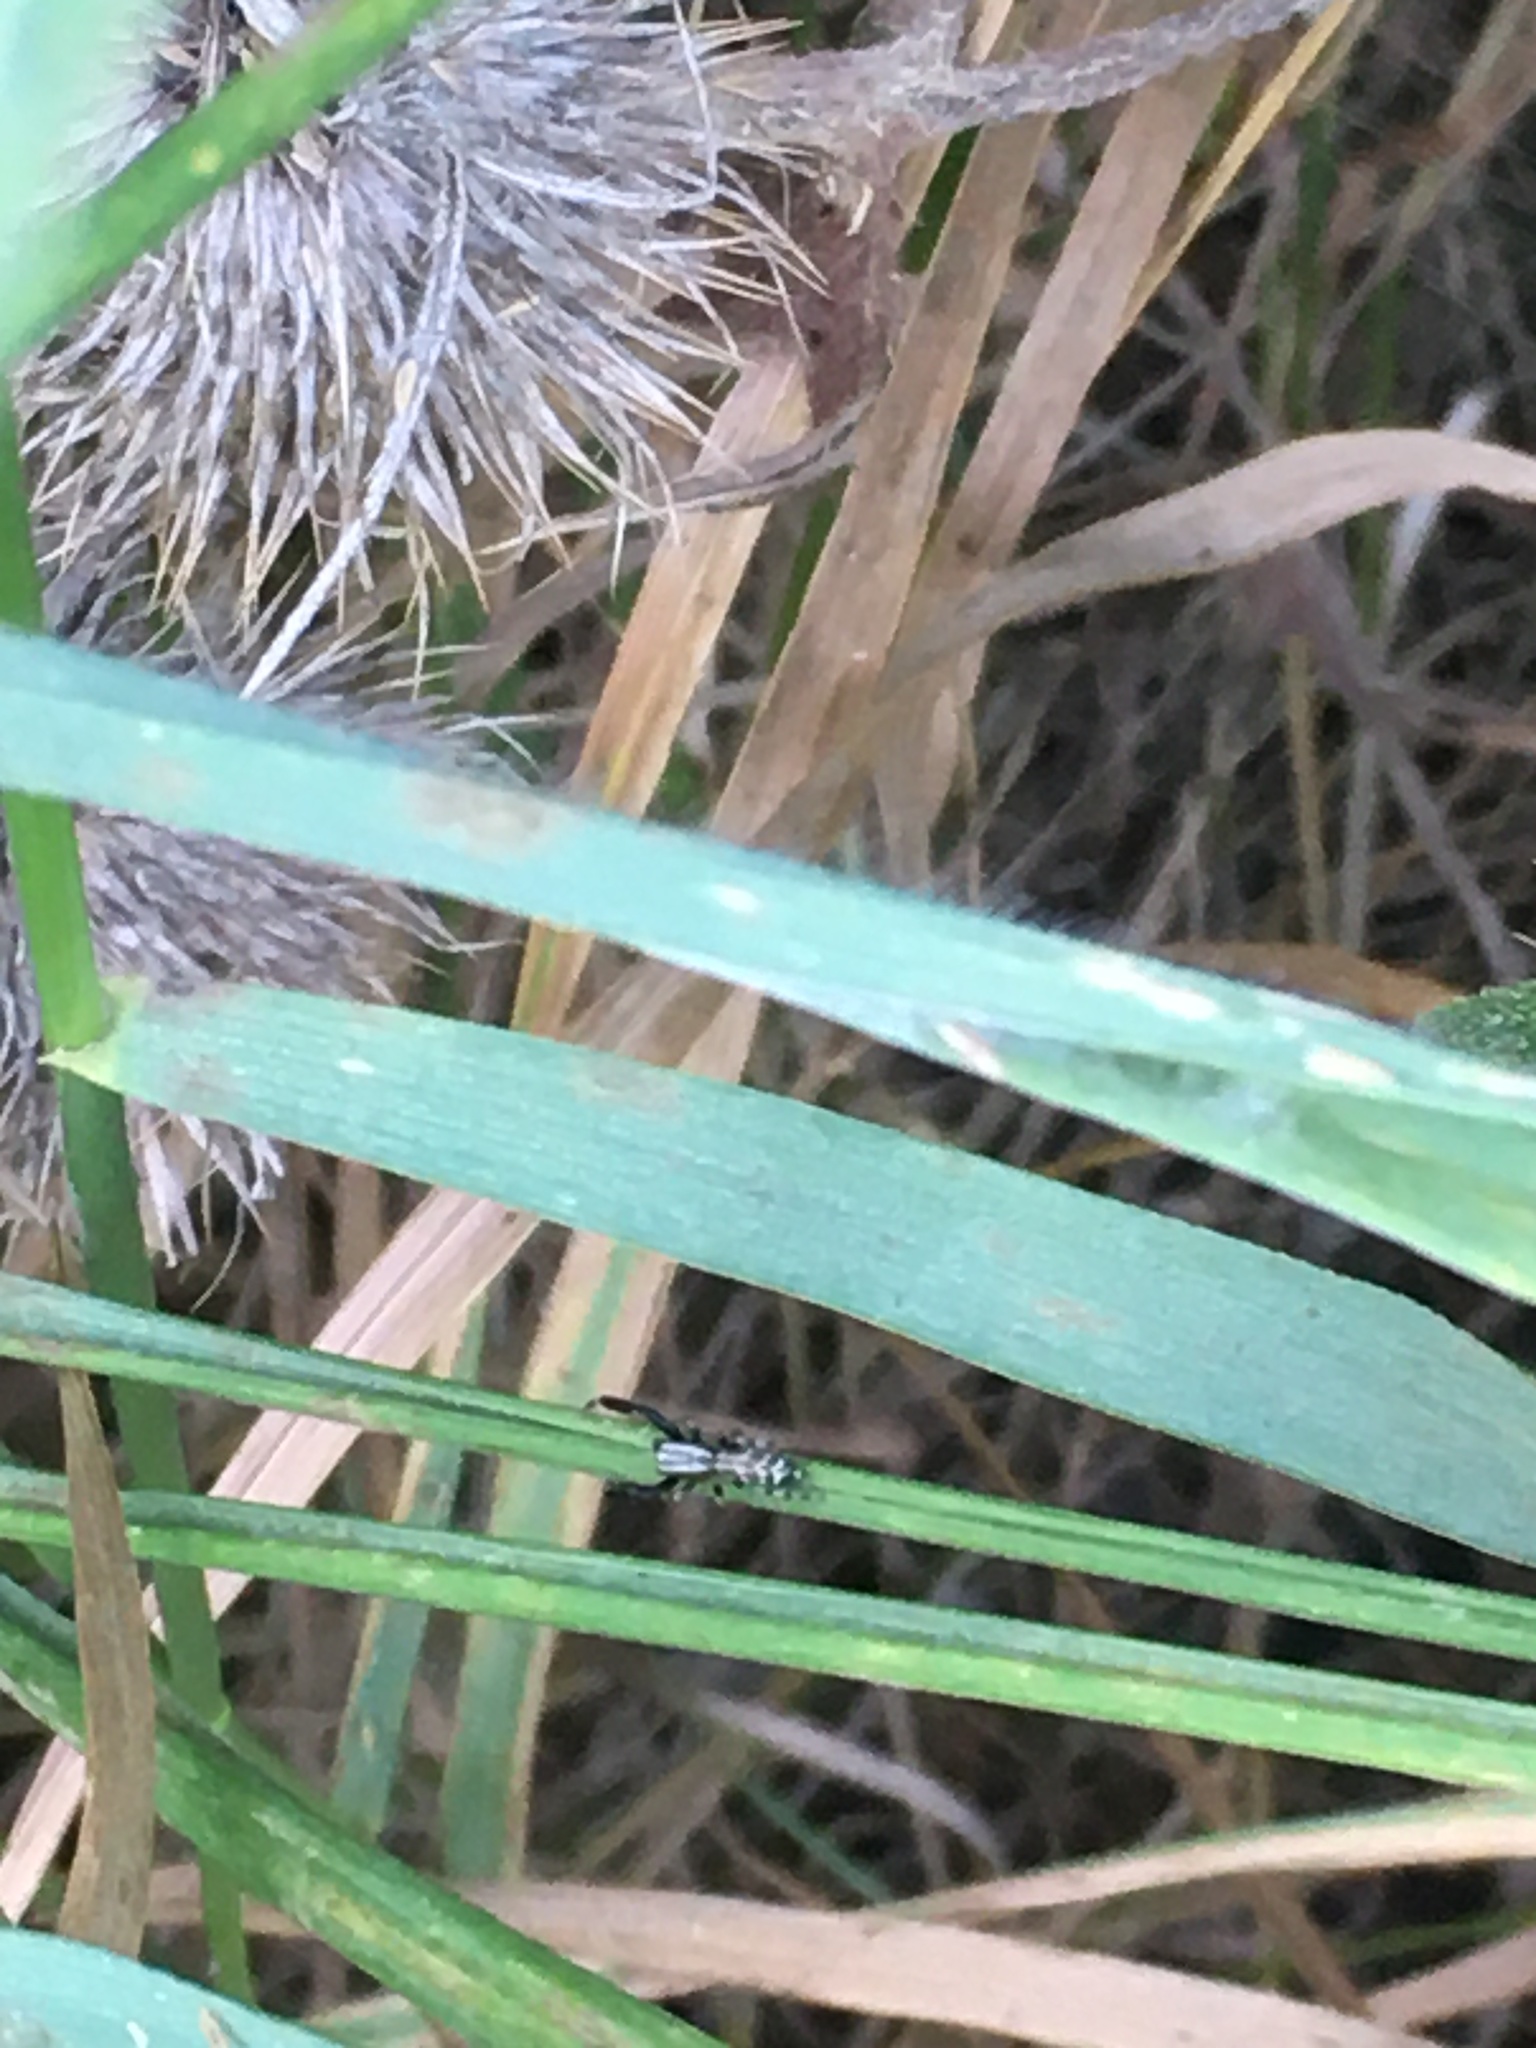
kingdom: Animalia
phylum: Arthropoda
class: Arachnida
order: Araneae
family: Salticidae
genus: Marpissa
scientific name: Marpissa nivoyi
